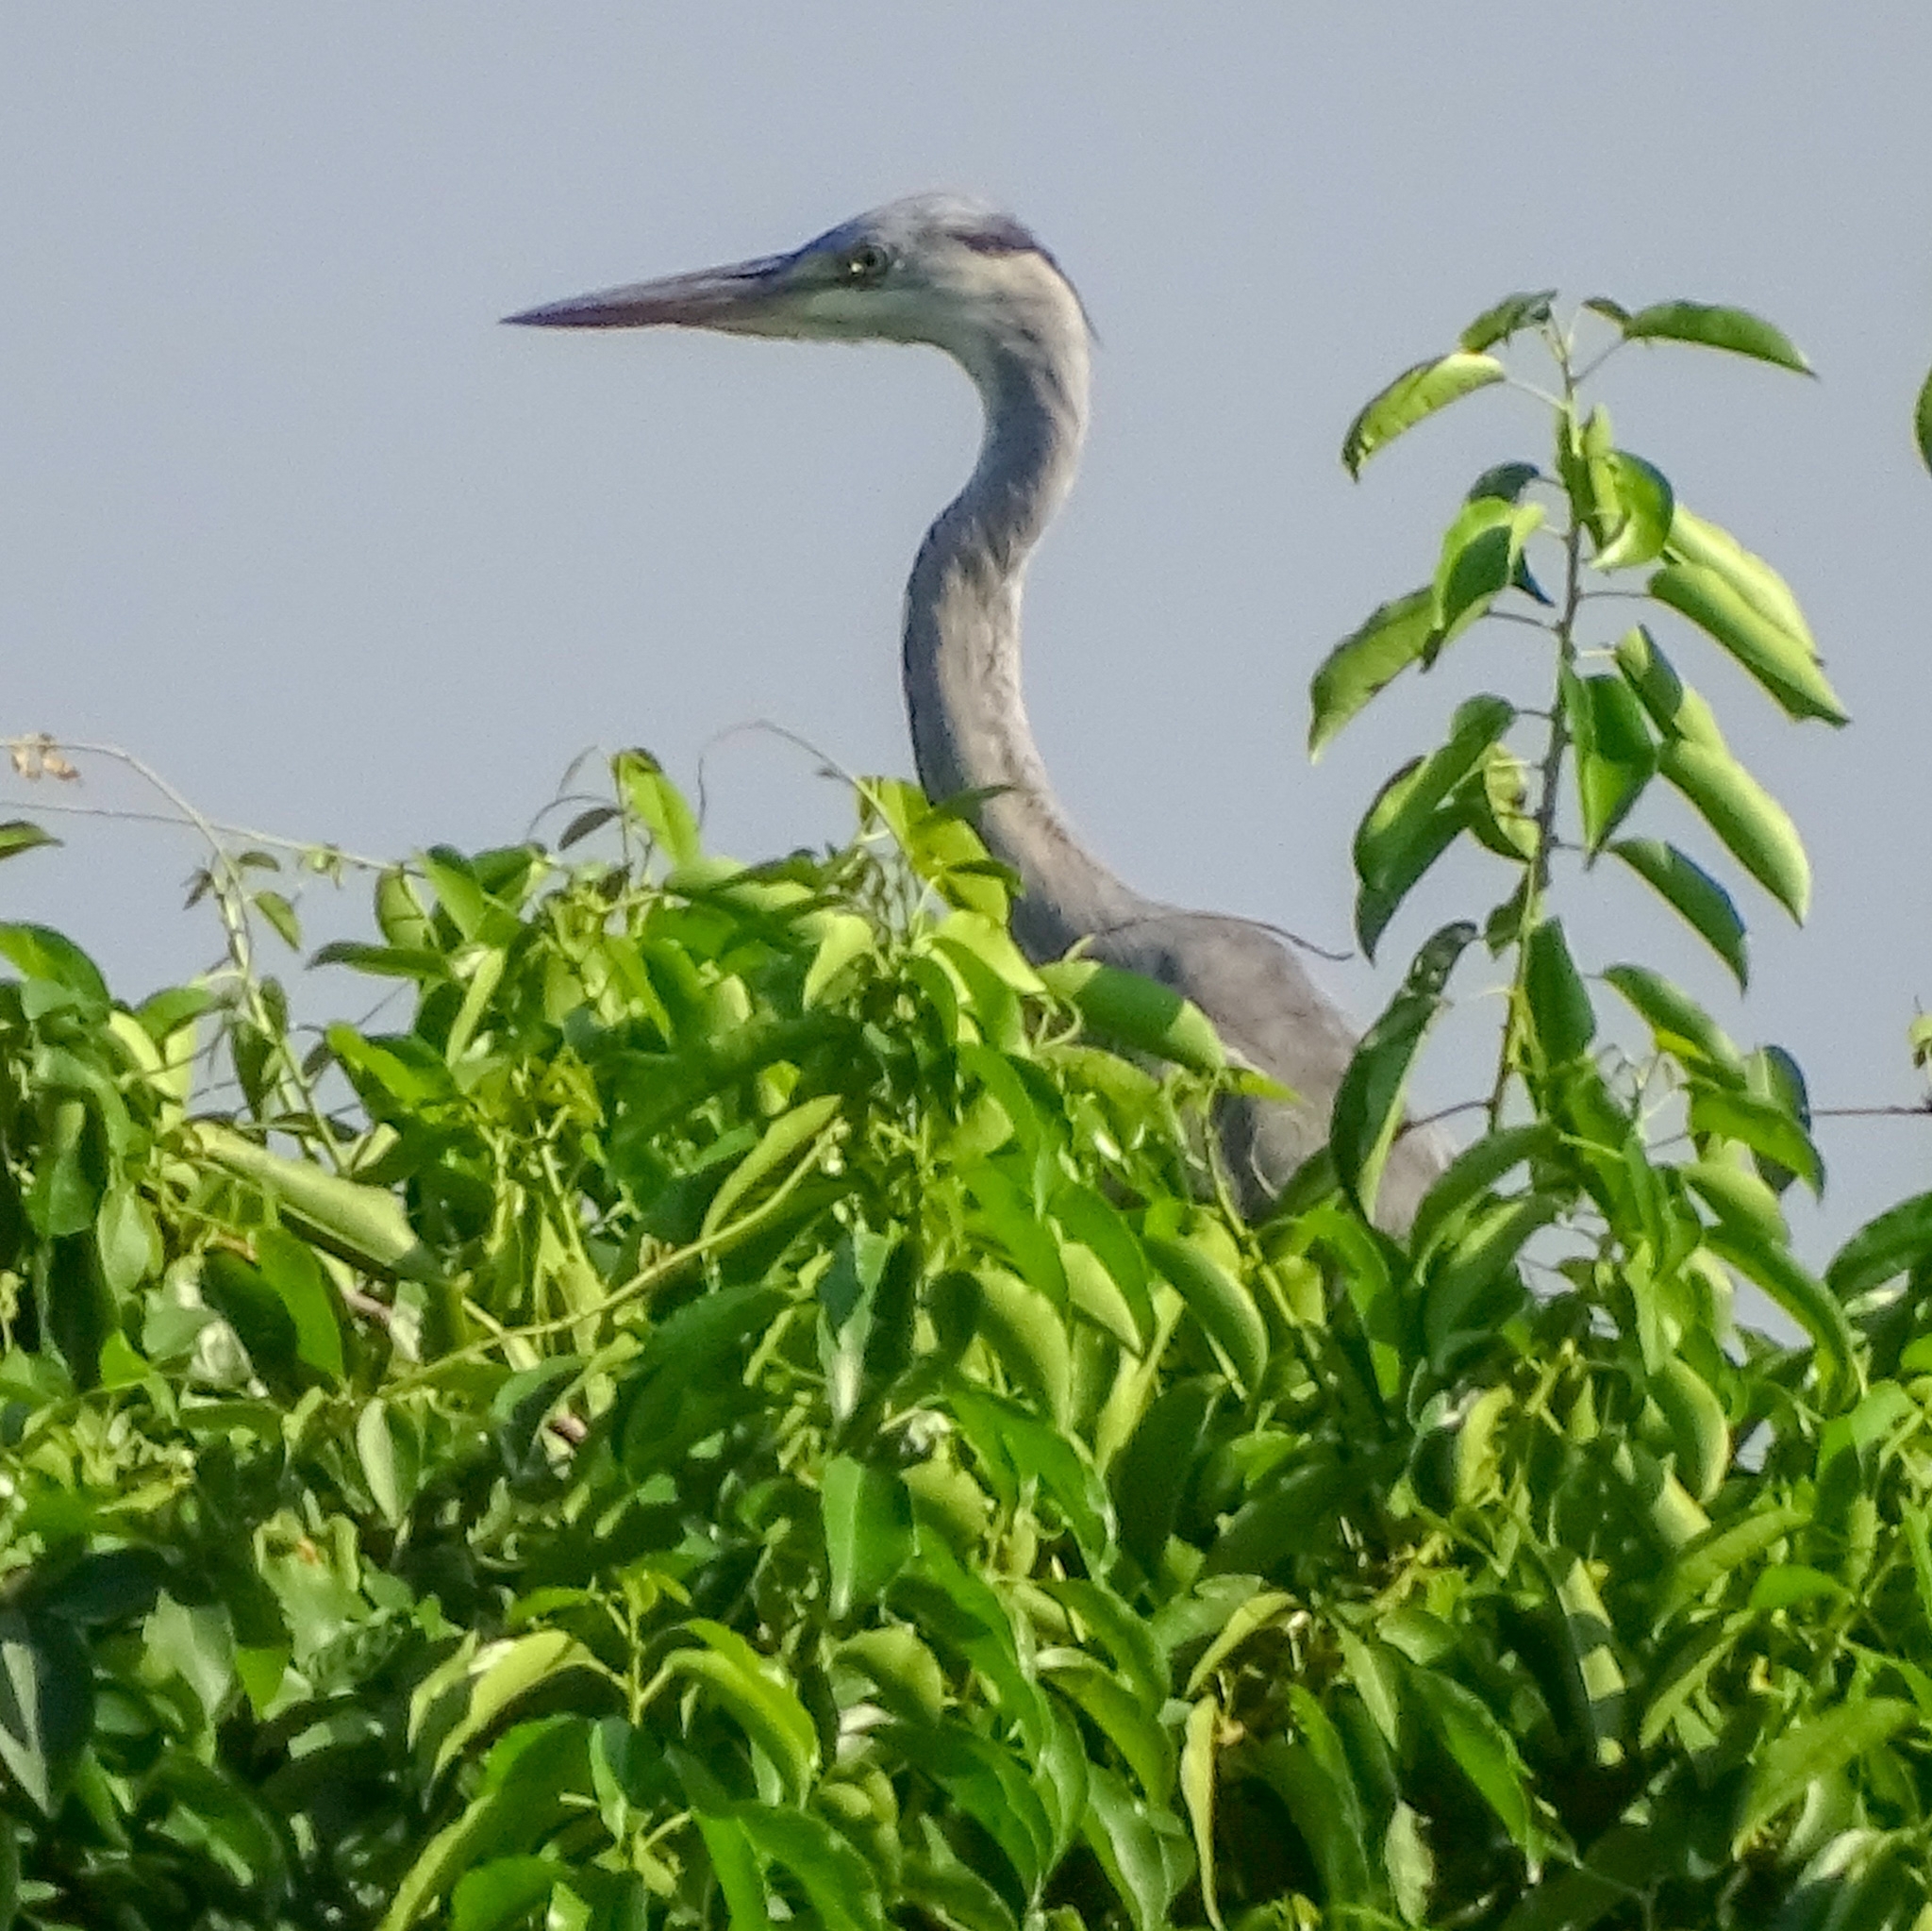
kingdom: Animalia
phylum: Chordata
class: Aves
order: Pelecaniformes
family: Ardeidae
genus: Ardea
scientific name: Ardea cinerea
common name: Grey heron
